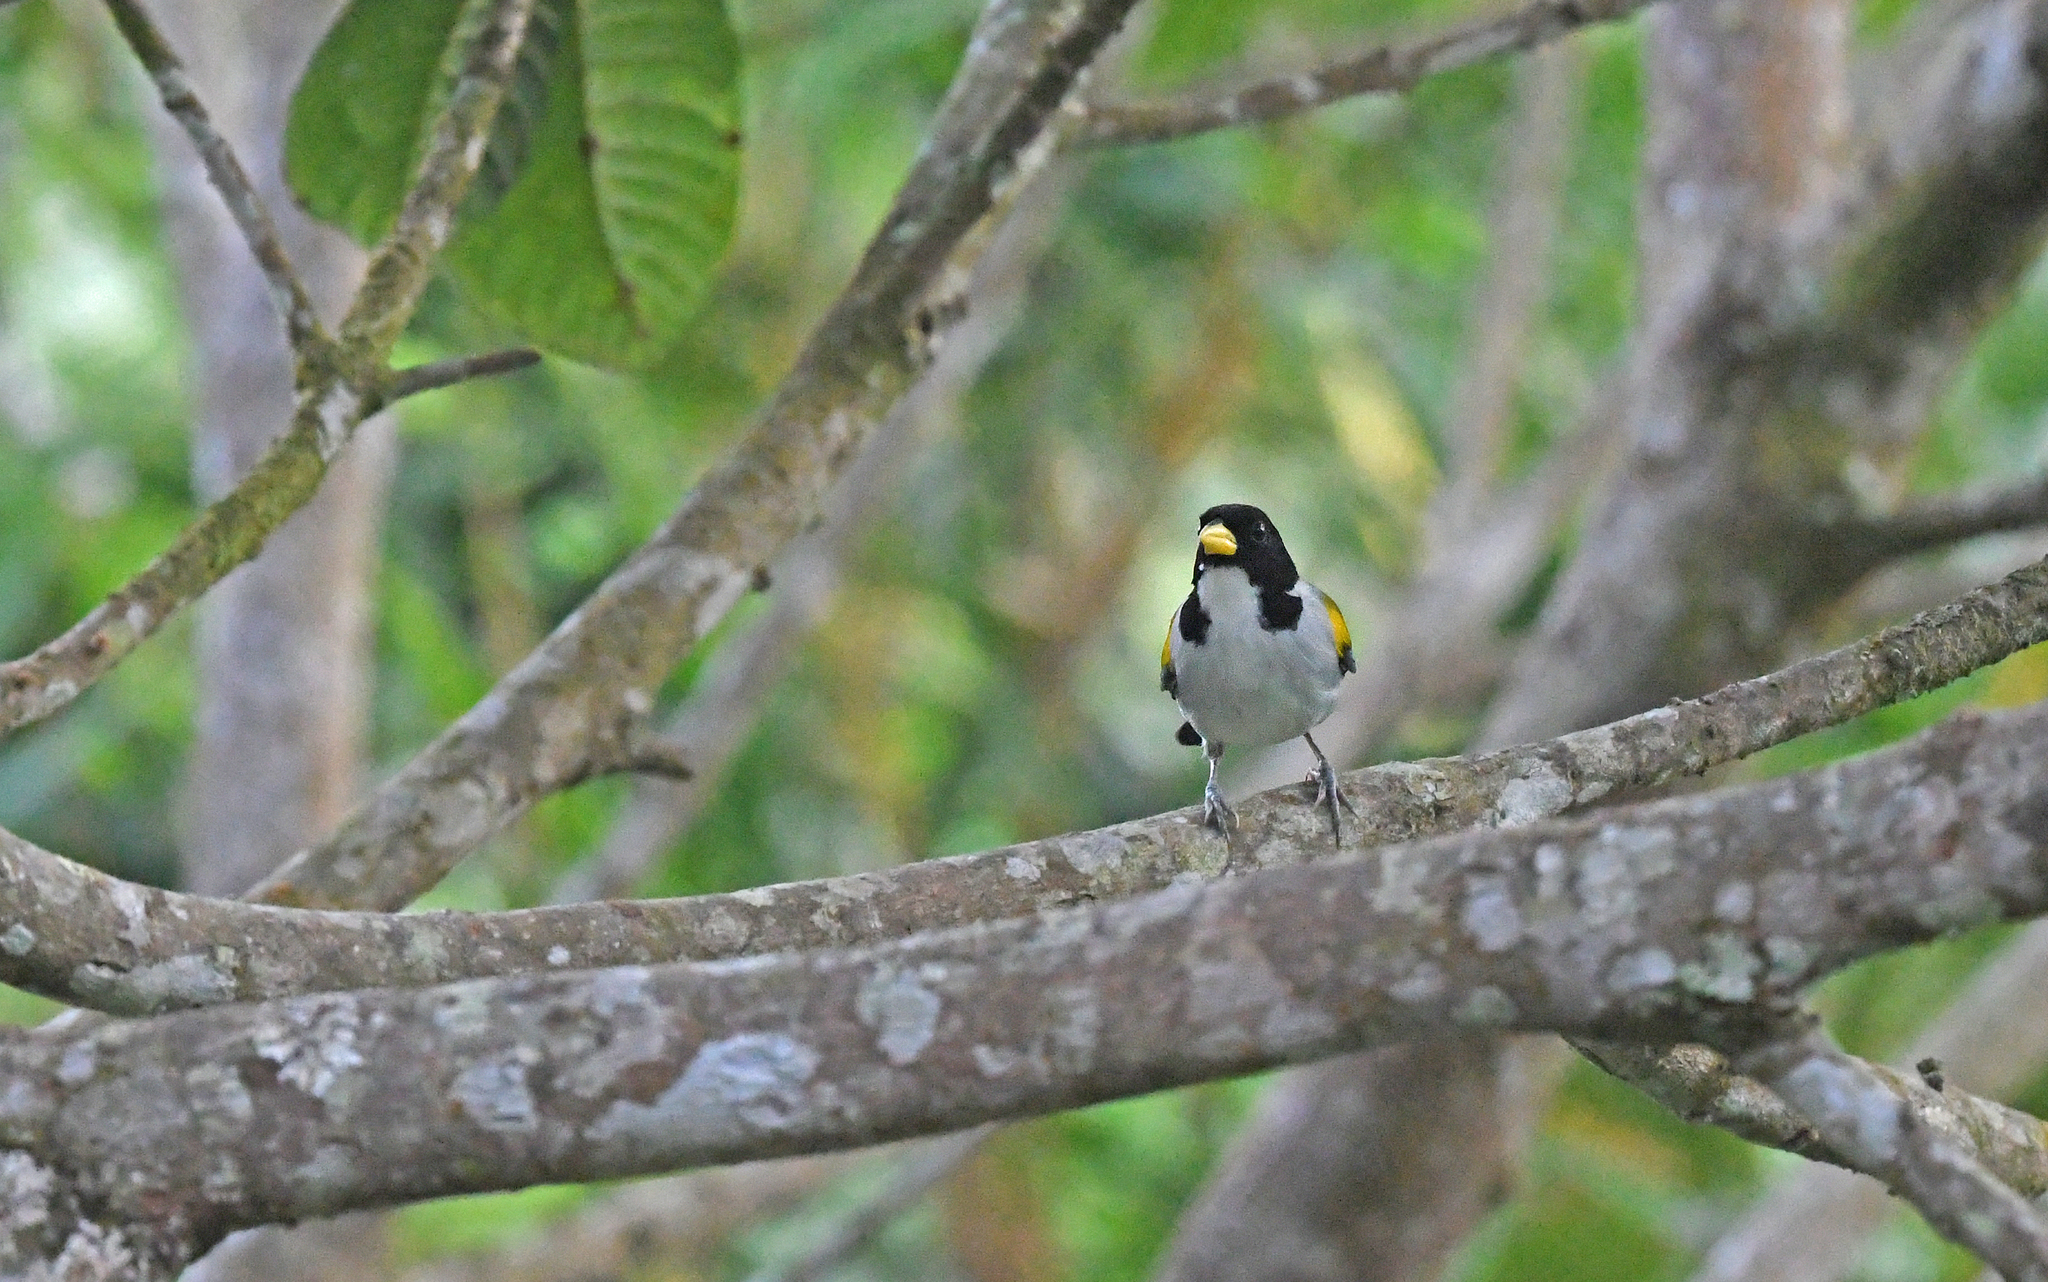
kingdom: Animalia
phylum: Chordata
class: Aves
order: Passeriformes
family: Passerellidae
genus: Arremon
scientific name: Arremon schlegeli
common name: Golden-winged sparrow
